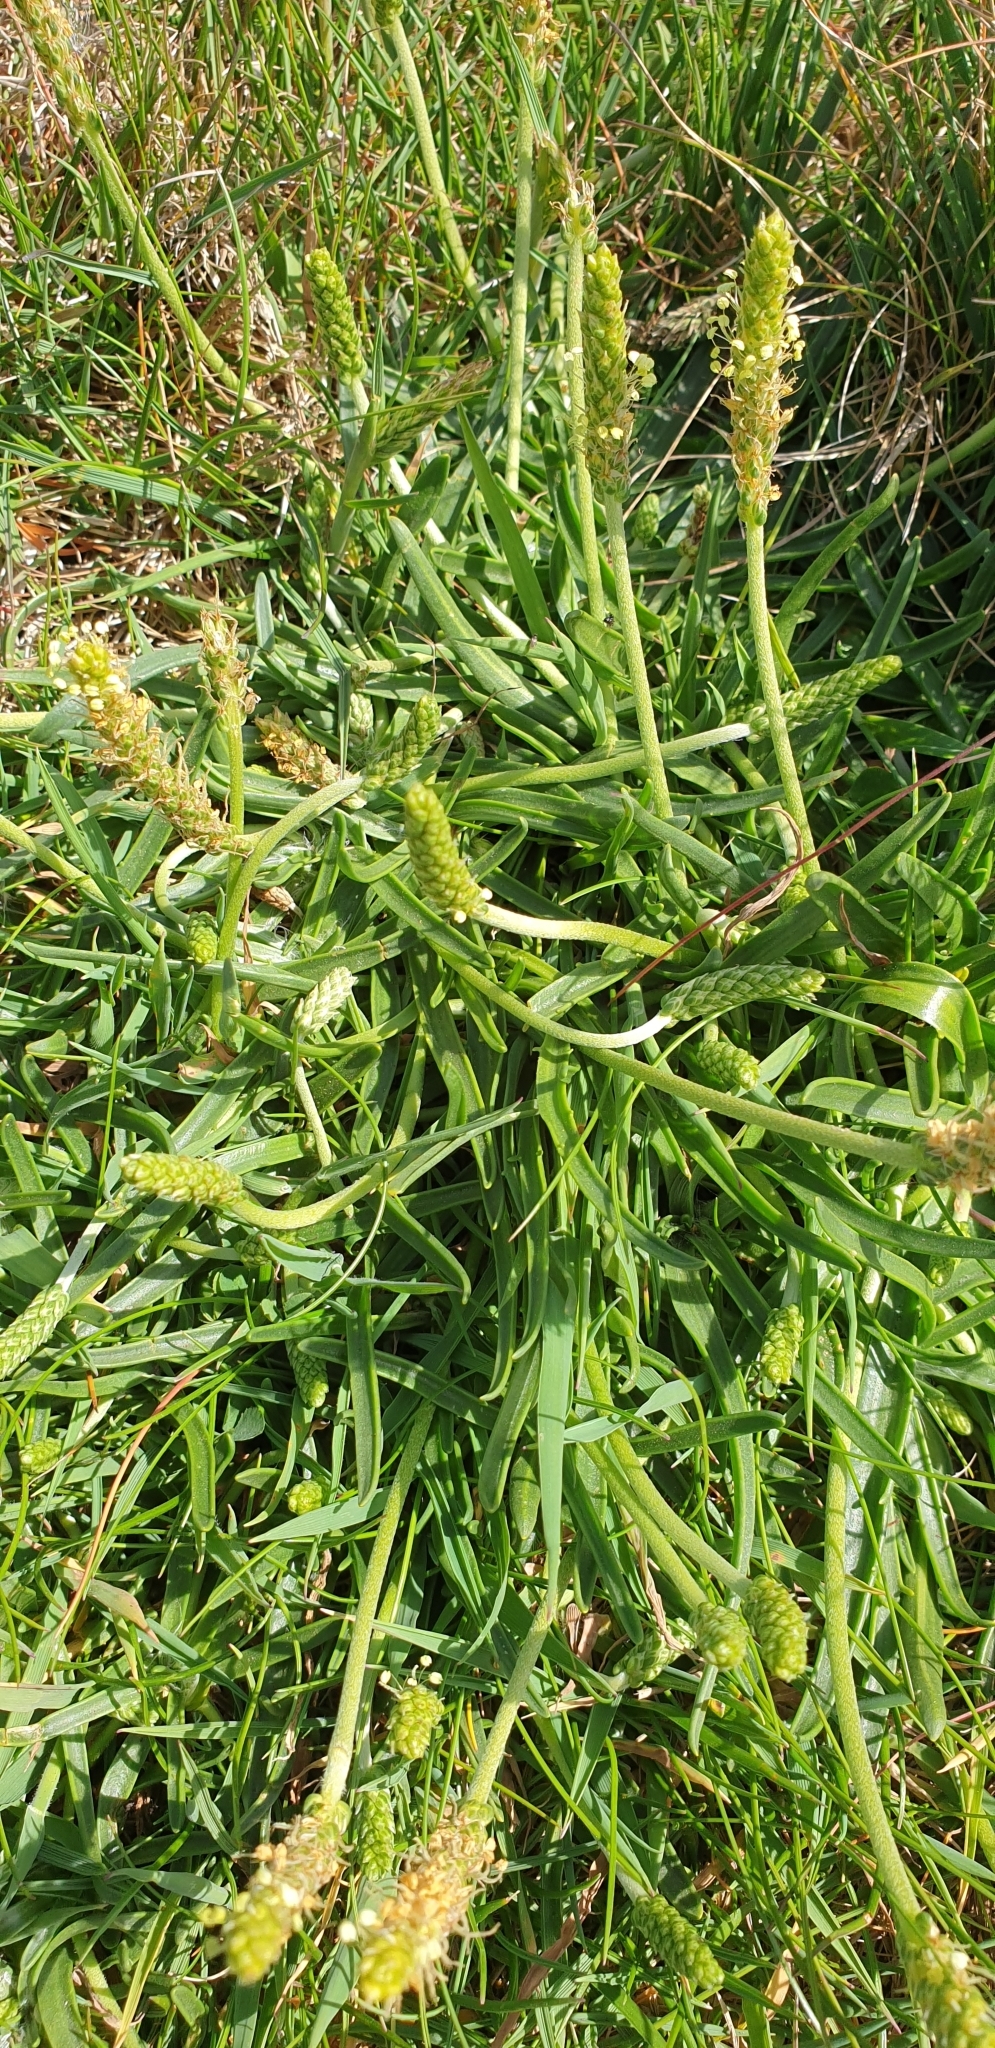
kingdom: Plantae
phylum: Tracheophyta
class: Magnoliopsida
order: Lamiales
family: Plantaginaceae
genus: Plantago
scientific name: Plantago maritima
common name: Sea plantain
